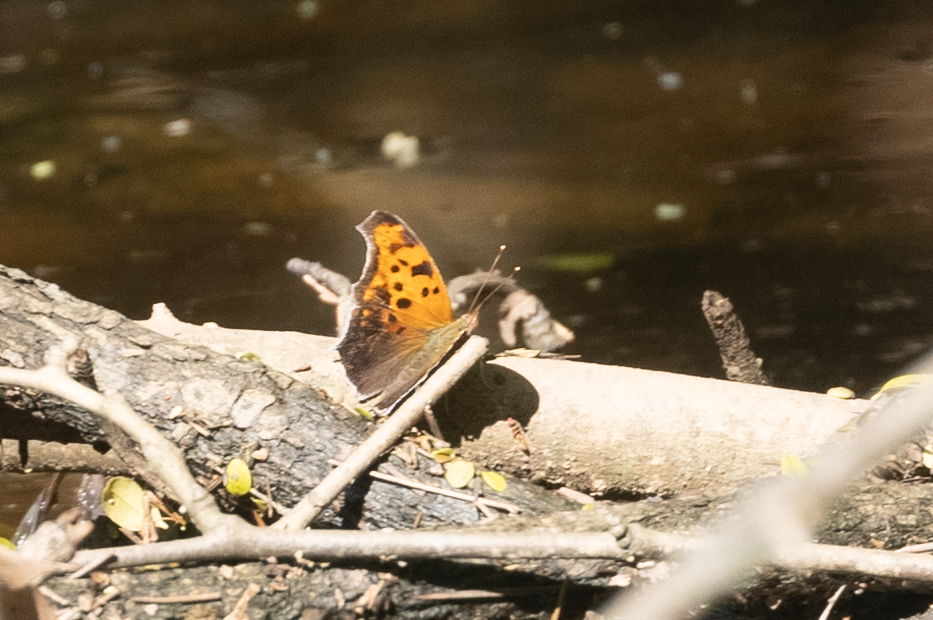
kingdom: Animalia
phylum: Arthropoda
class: Insecta
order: Lepidoptera
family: Nymphalidae
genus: Polygonia
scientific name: Polygonia interrogationis
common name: Question mark
